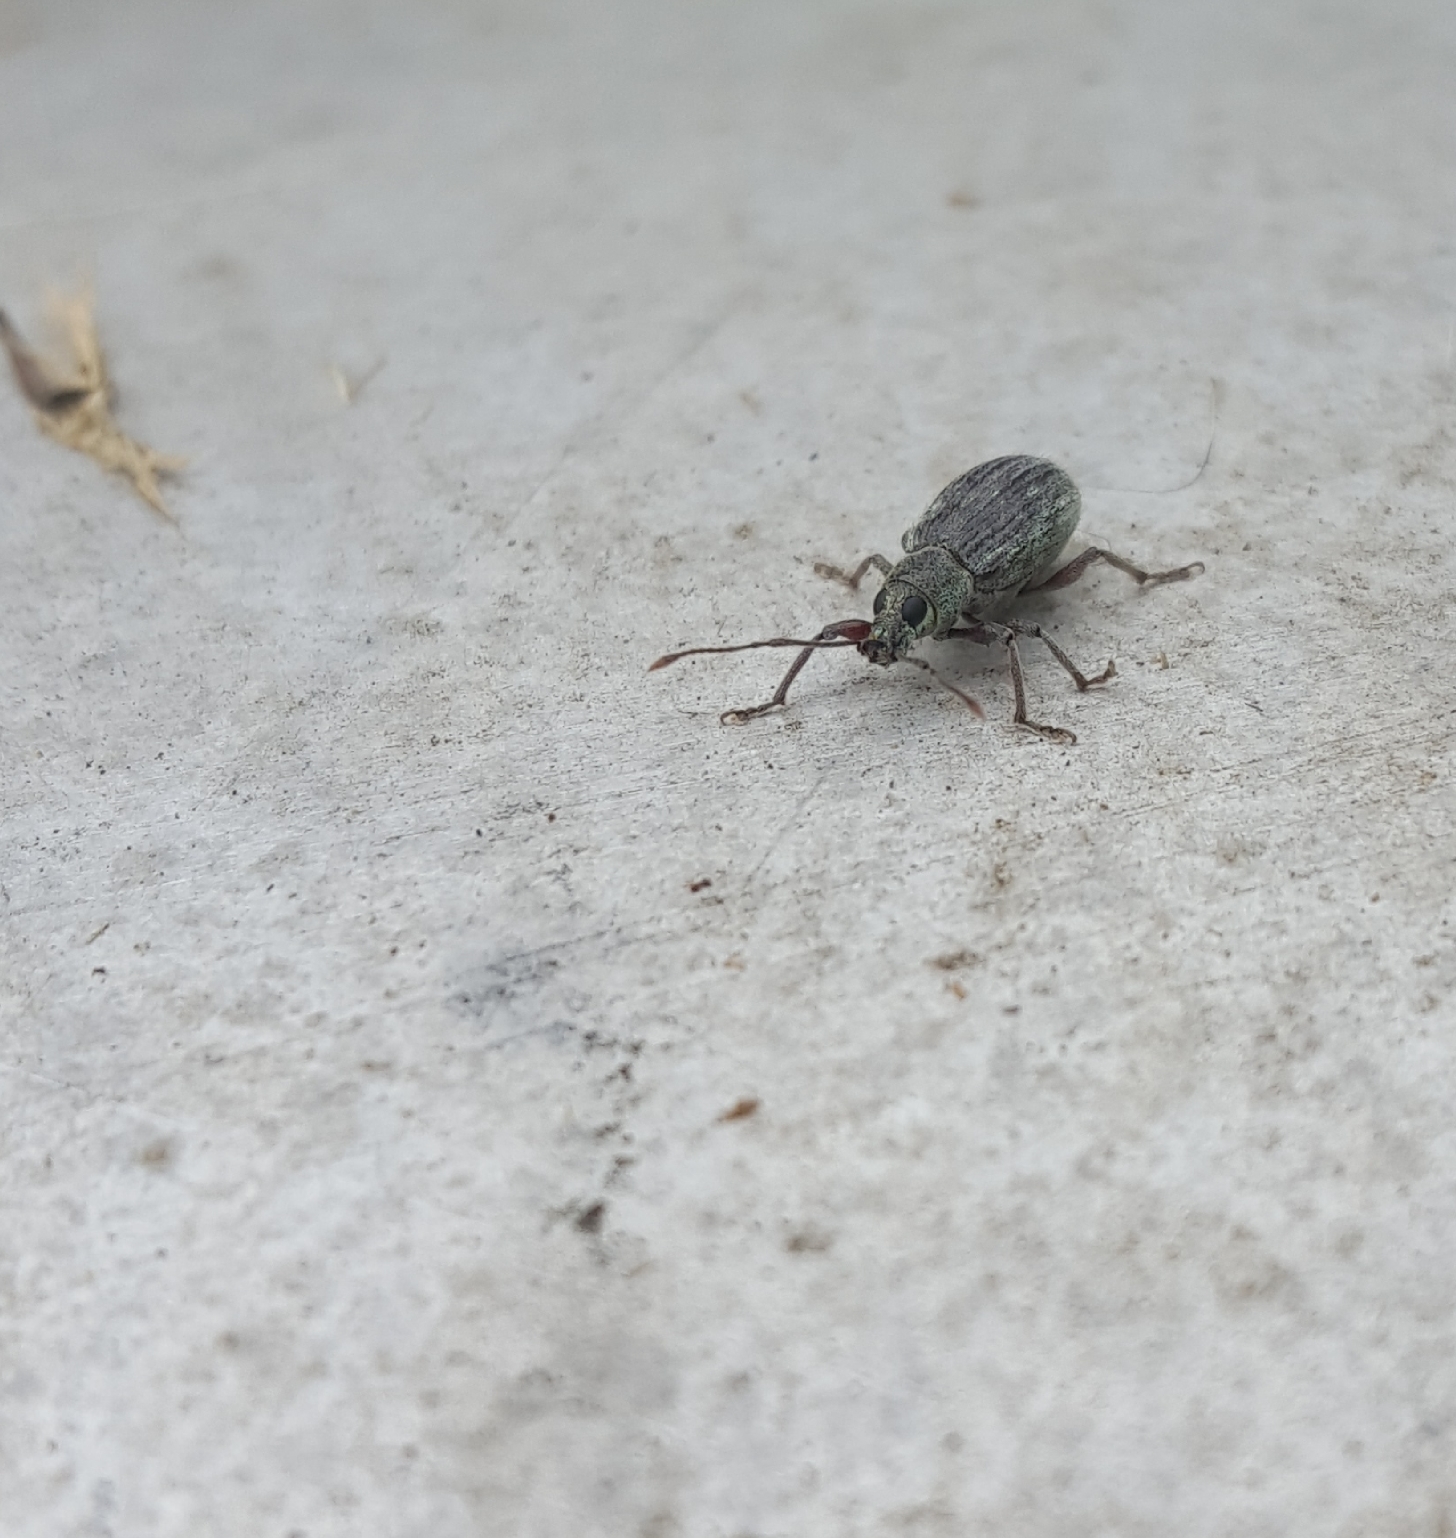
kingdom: Animalia
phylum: Arthropoda
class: Insecta
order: Coleoptera
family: Curculionidae
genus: Cyrtepistomus
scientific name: Cyrtepistomus castaneus
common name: Weevil
